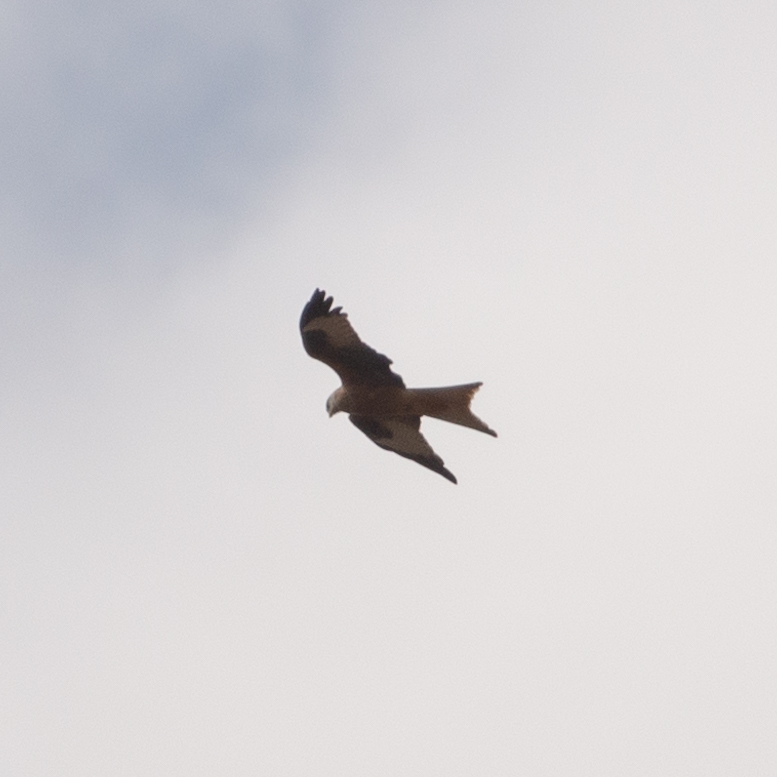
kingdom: Animalia
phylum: Chordata
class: Aves
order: Accipitriformes
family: Accipitridae
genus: Milvus
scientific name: Milvus milvus
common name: Red kite
